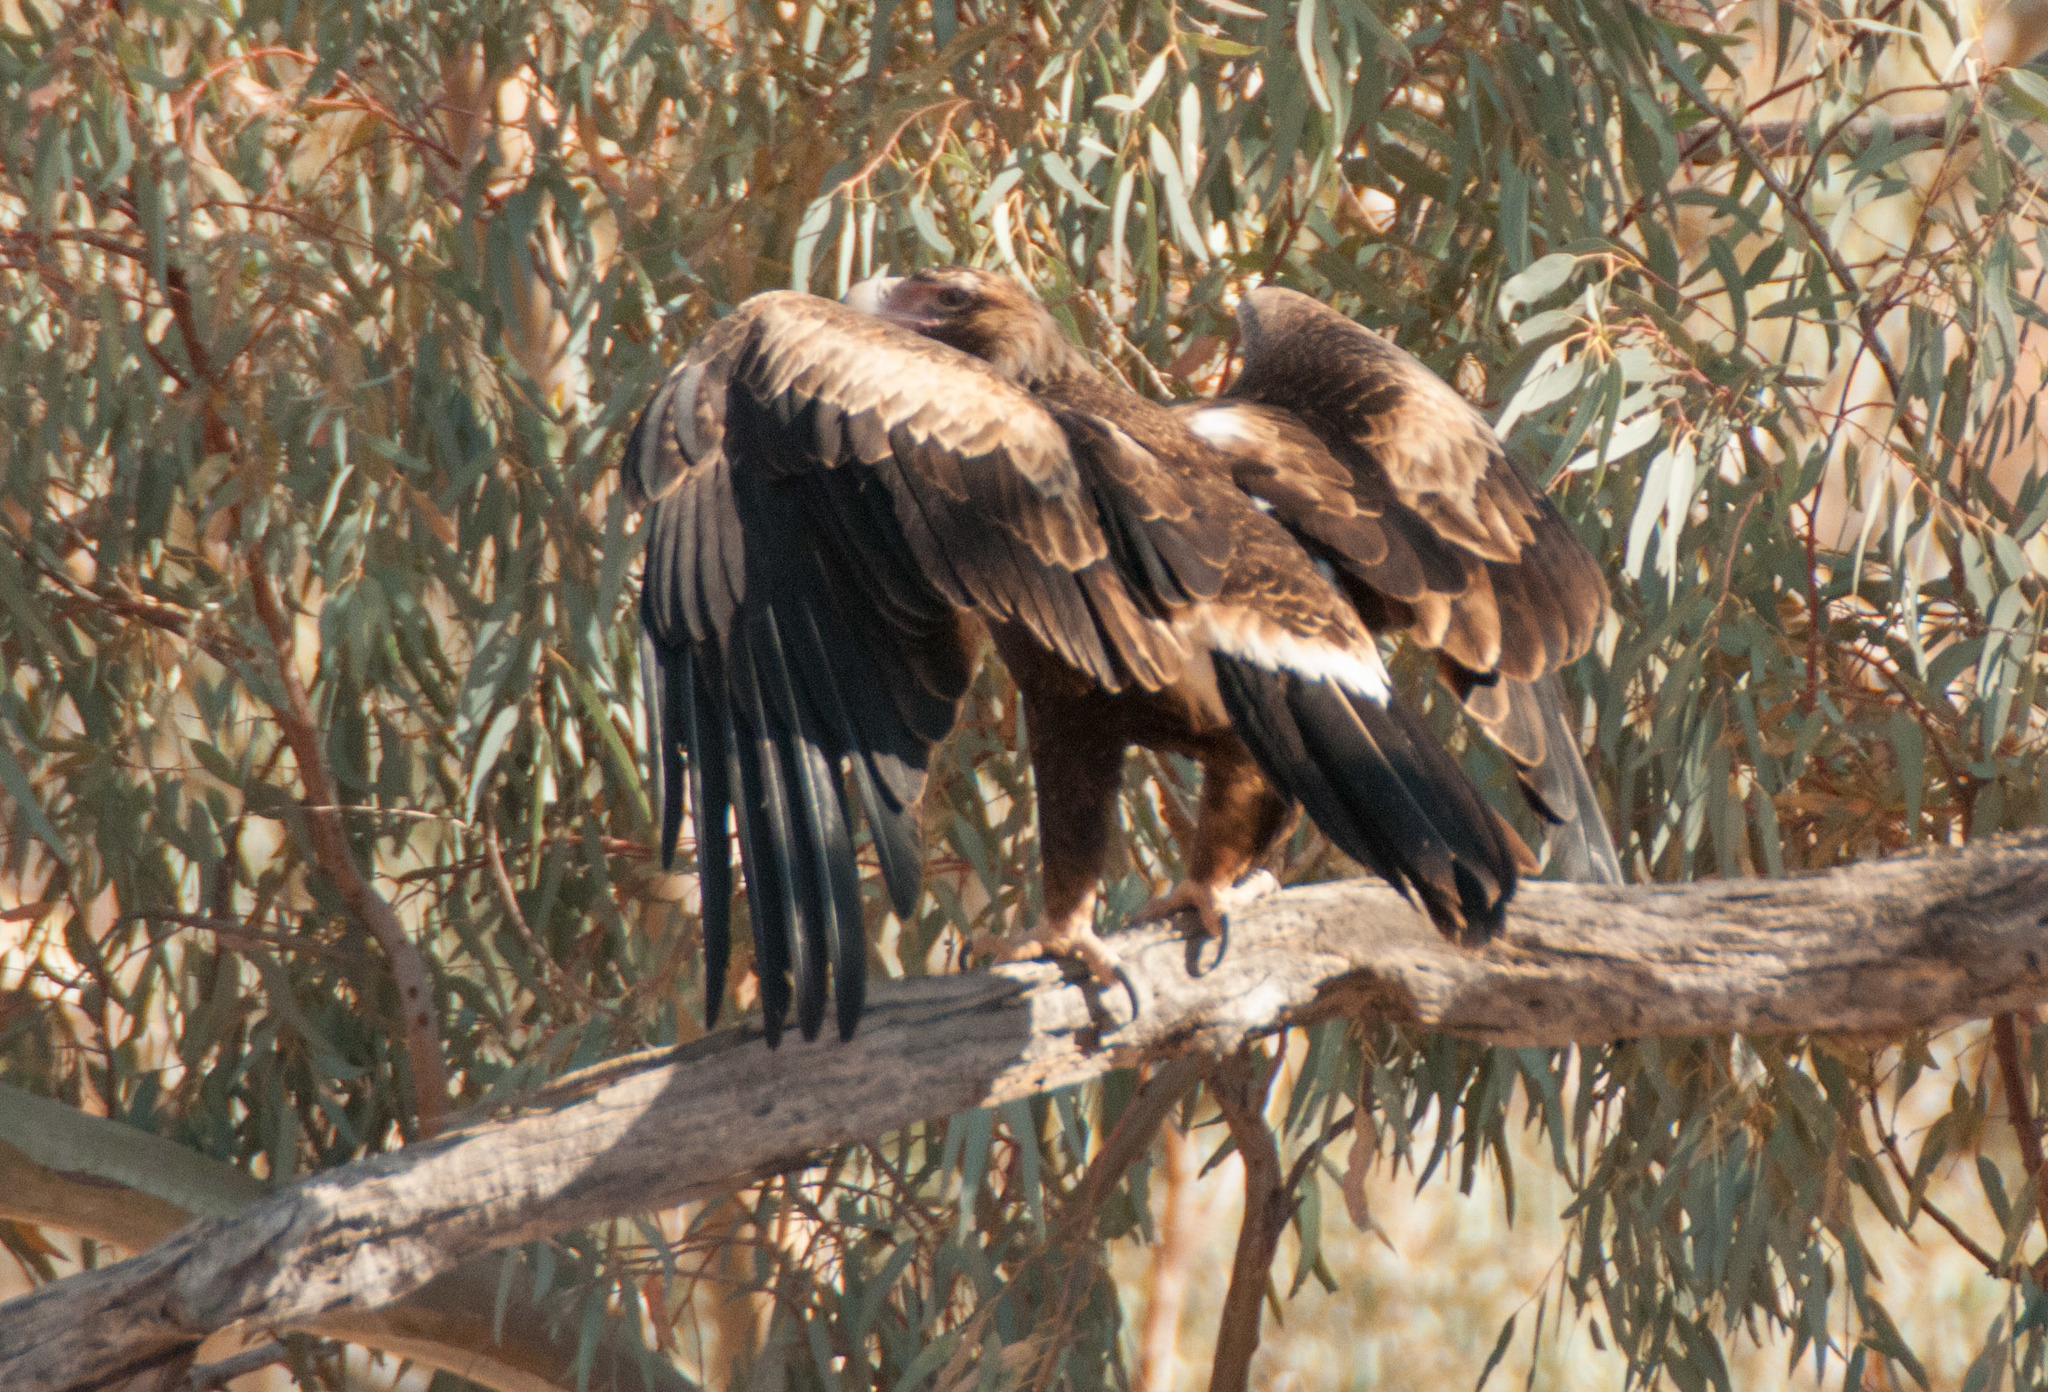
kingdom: Animalia
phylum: Chordata
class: Aves
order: Accipitriformes
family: Accipitridae
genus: Aquila
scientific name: Aquila audax
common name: Wedge-tailed eagle
